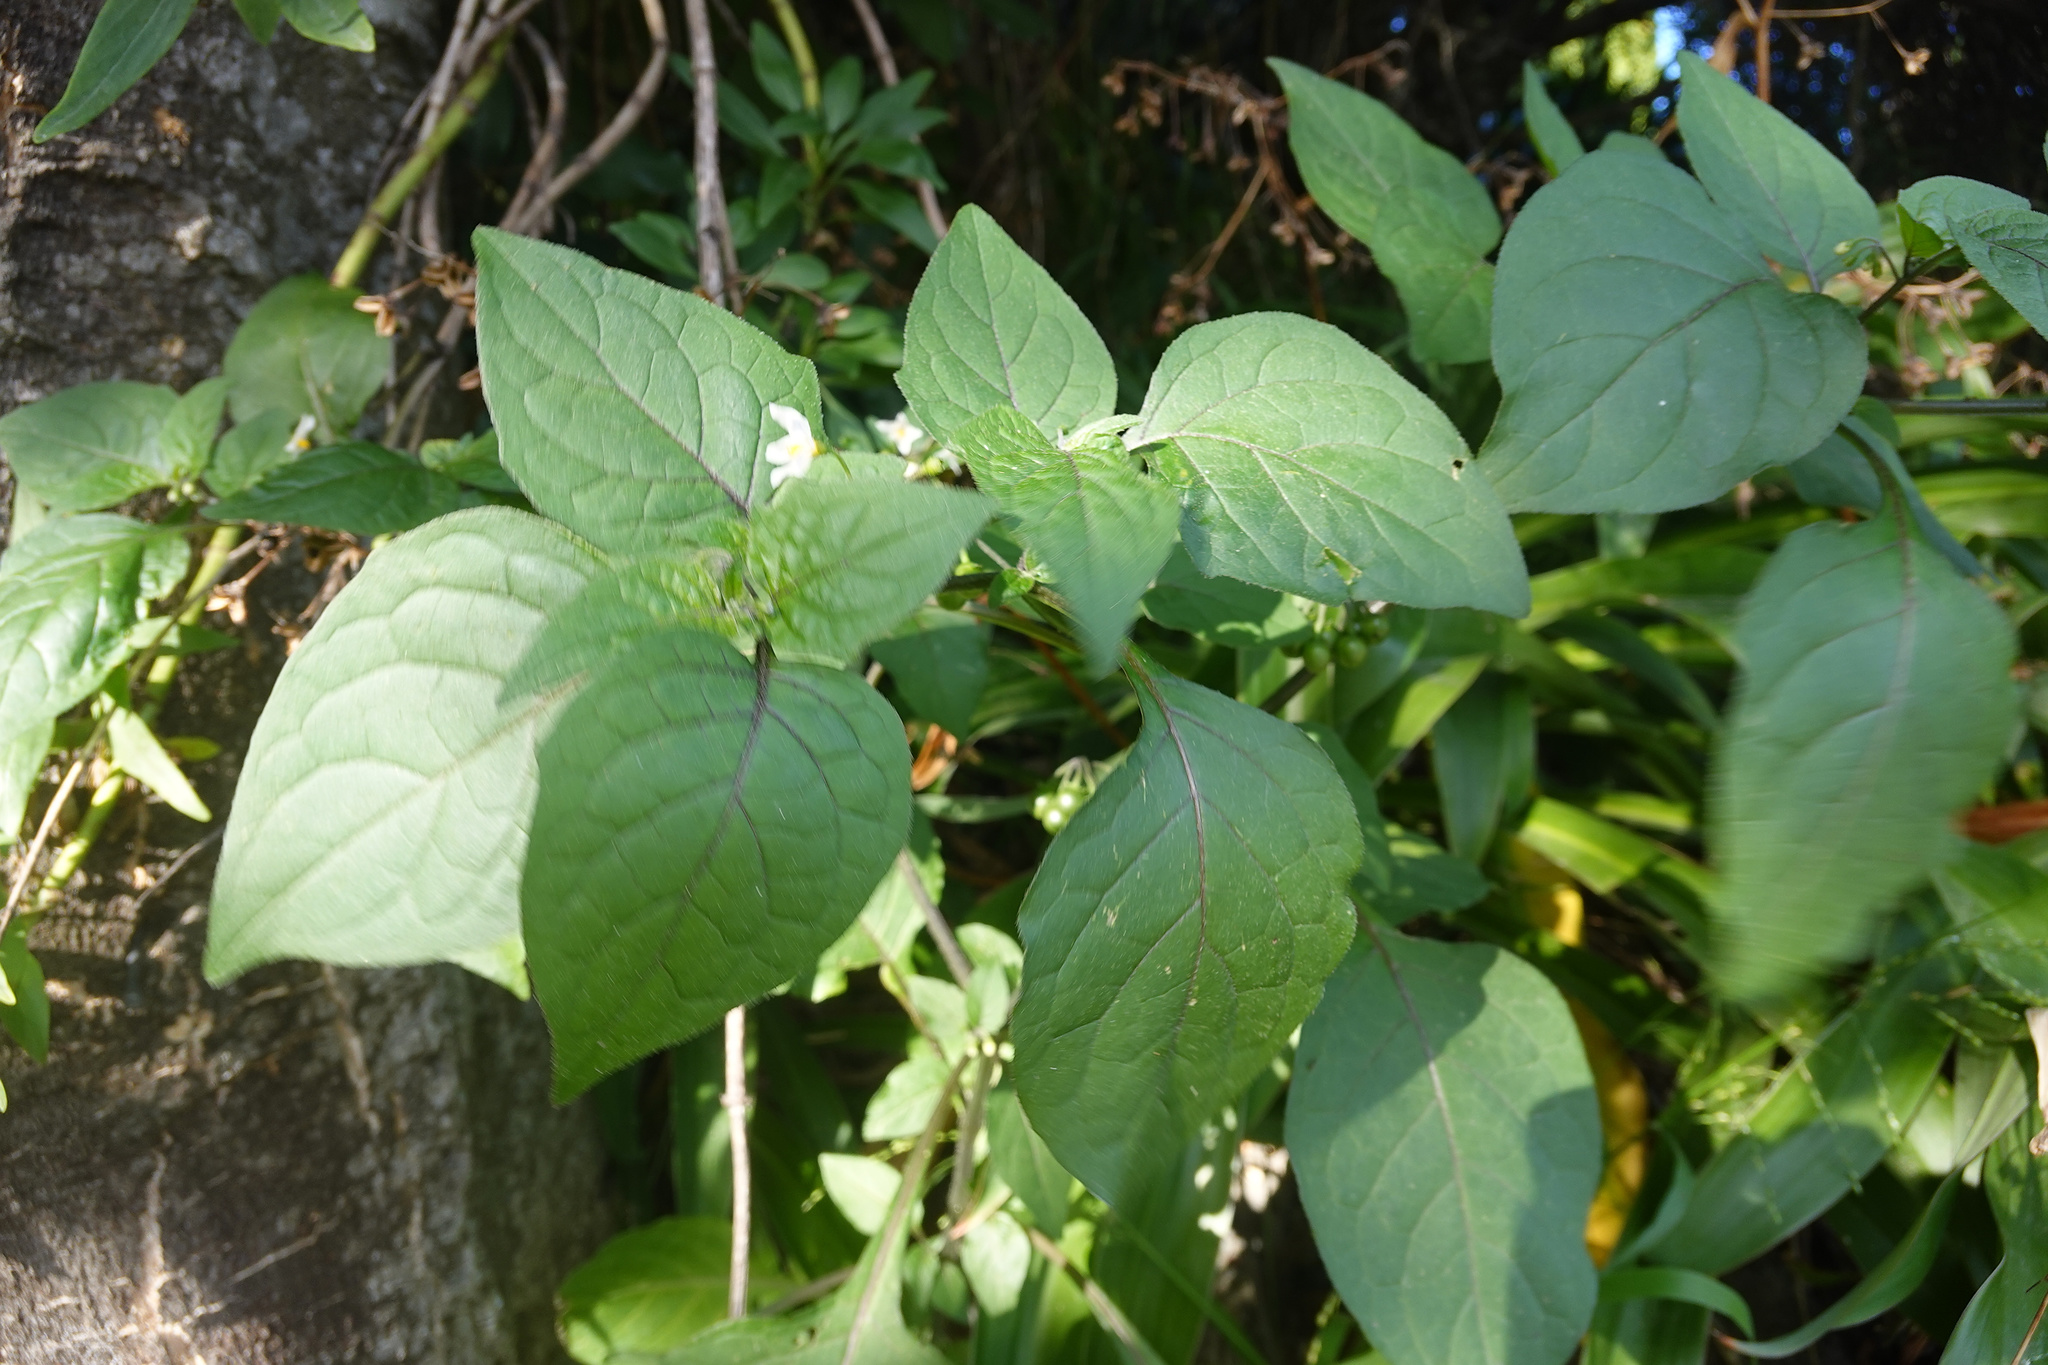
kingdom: Plantae
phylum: Tracheophyta
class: Magnoliopsida
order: Solanales
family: Solanaceae
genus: Solanum
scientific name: Solanum nigrum
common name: Black nightshade
